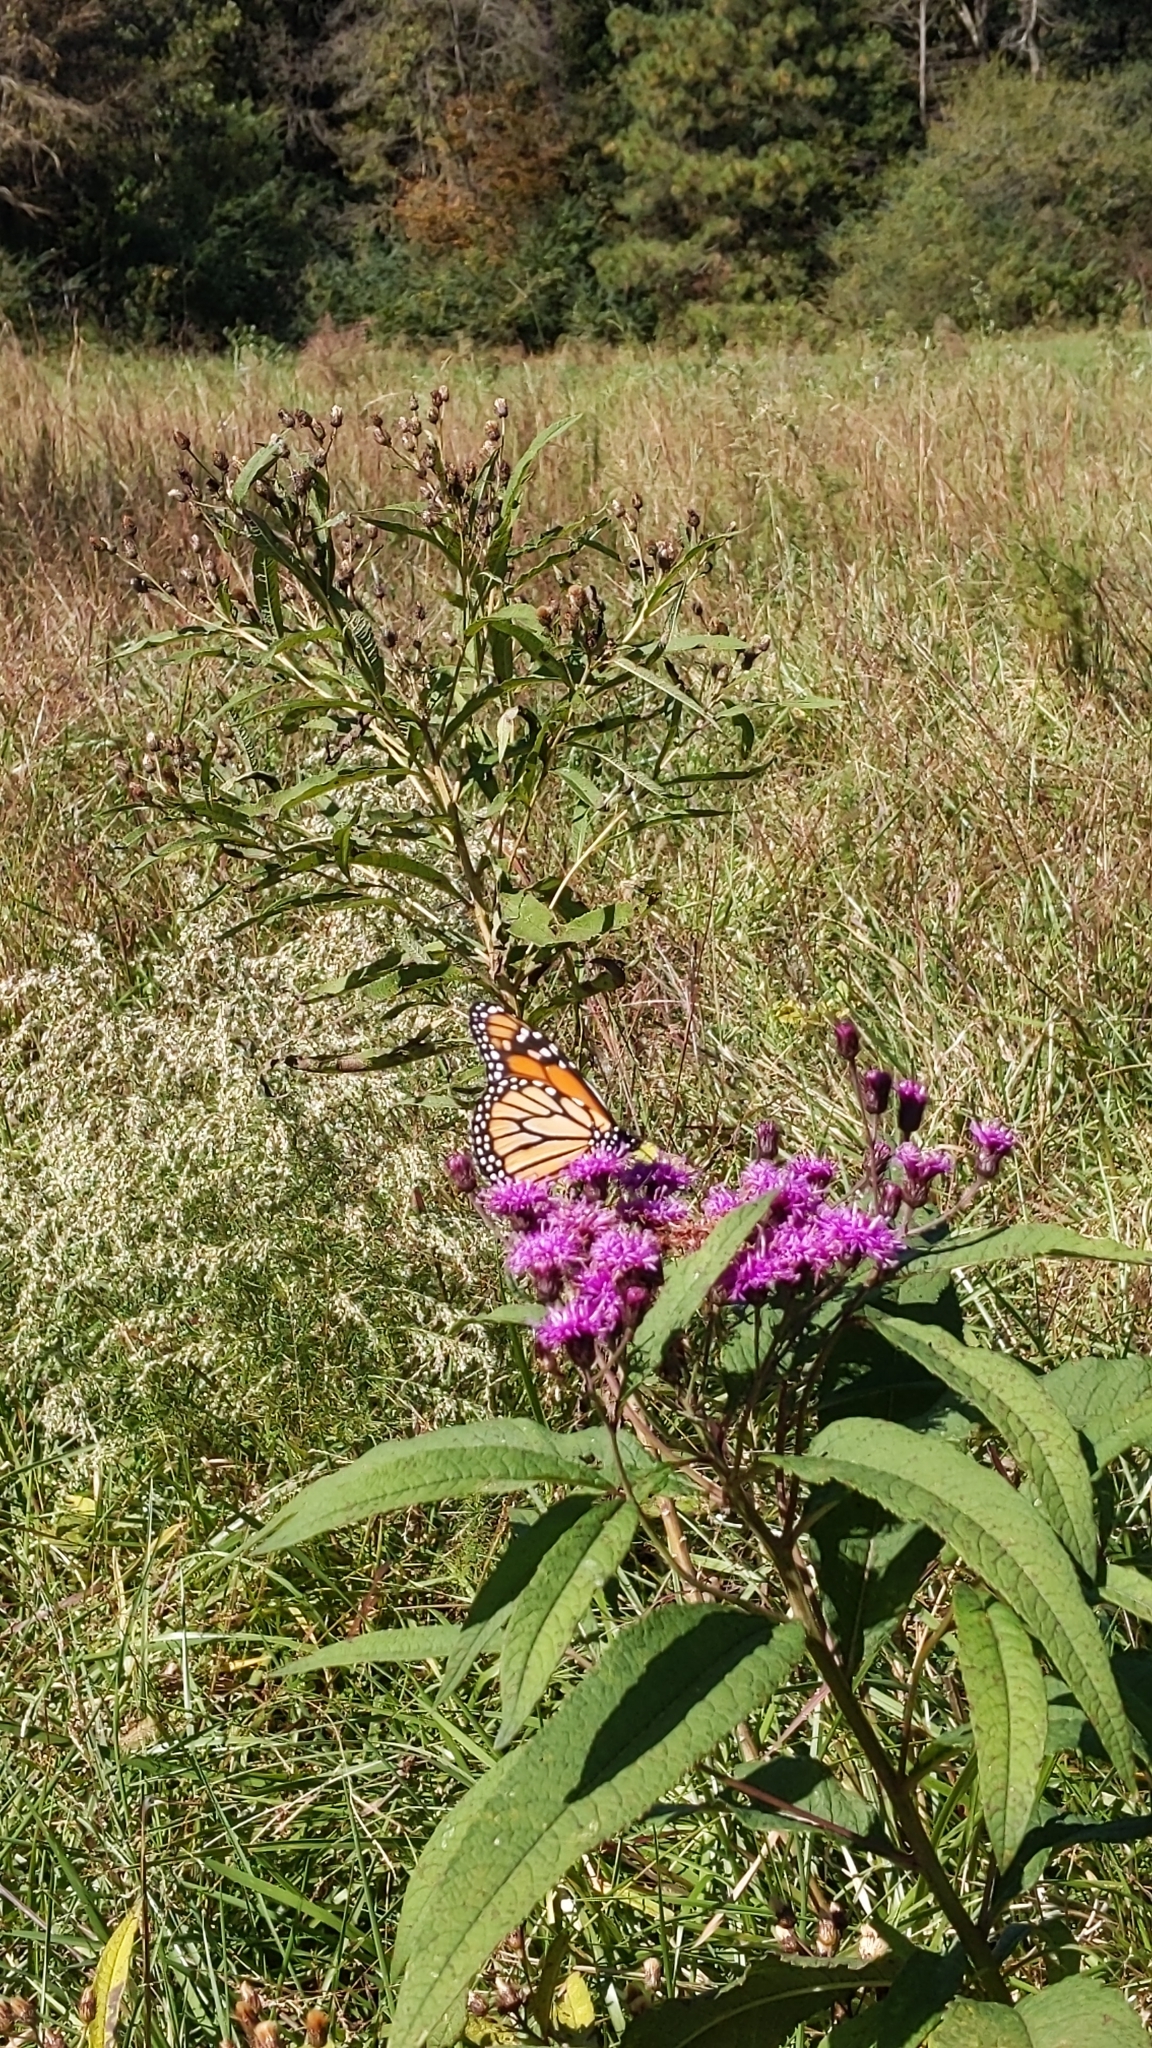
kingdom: Animalia
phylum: Arthropoda
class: Insecta
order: Lepidoptera
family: Nymphalidae
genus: Danaus
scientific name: Danaus plexippus
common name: Monarch
